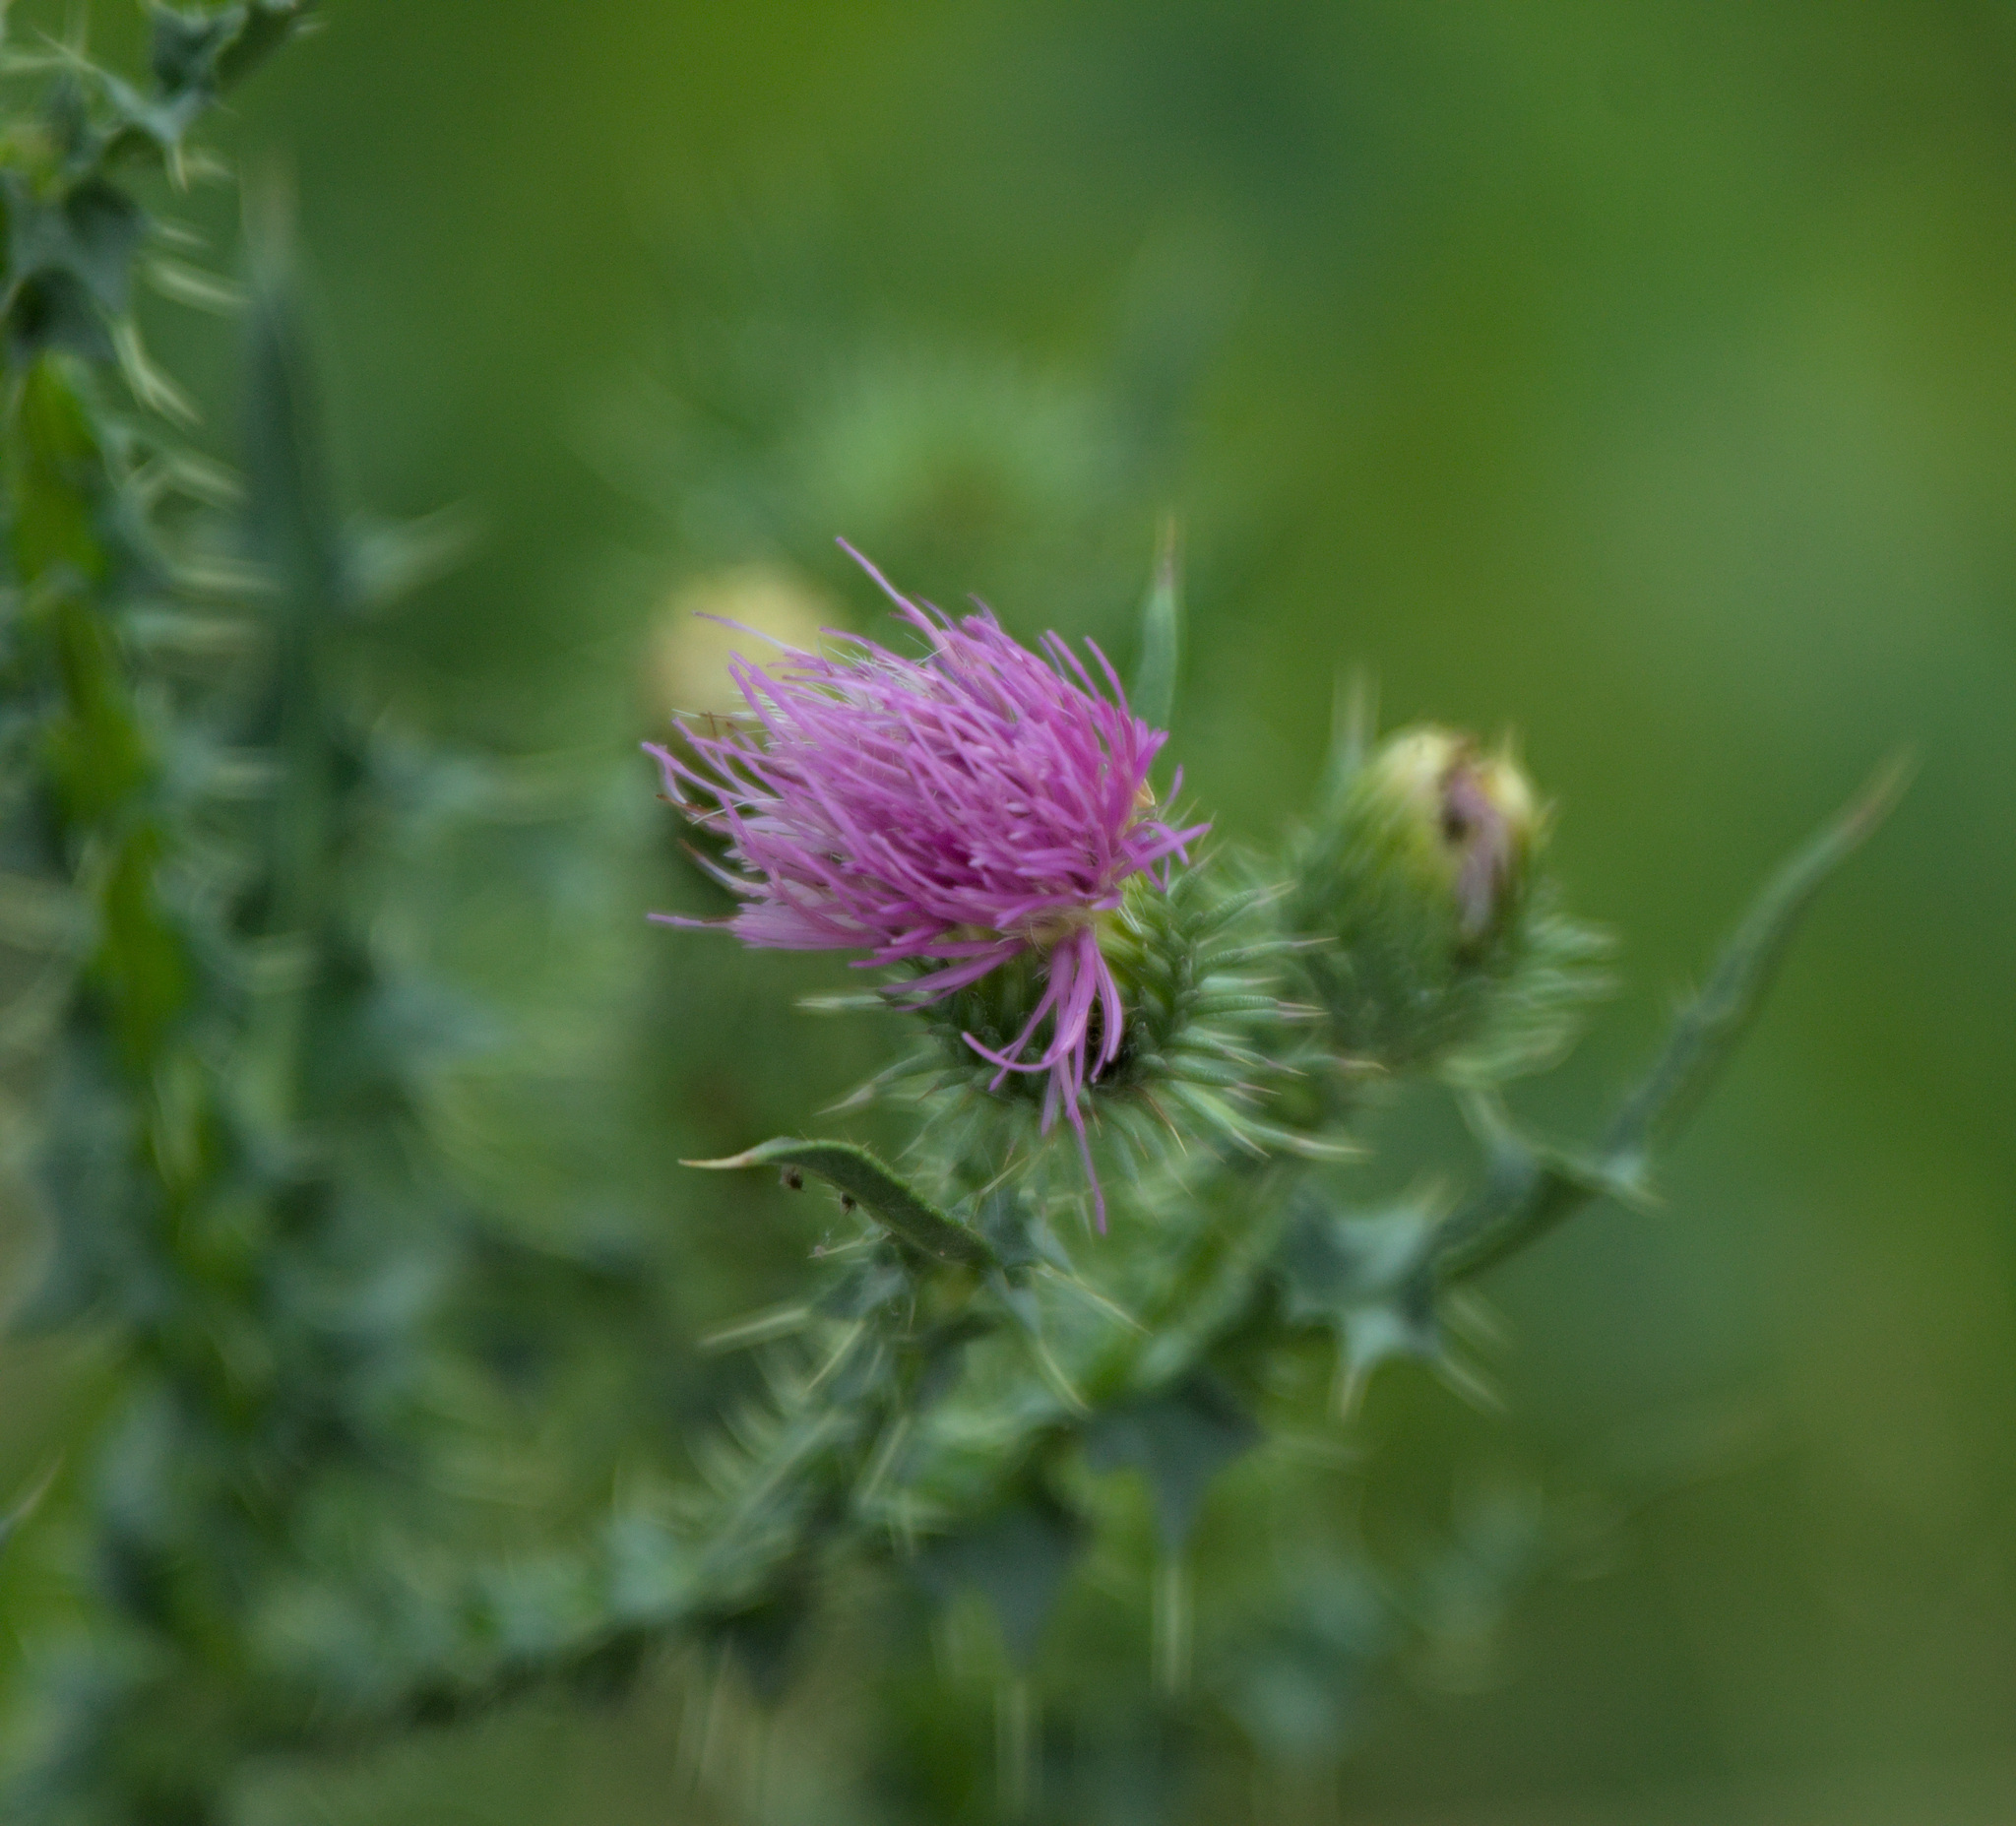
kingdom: Plantae
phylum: Tracheophyta
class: Magnoliopsida
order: Asterales
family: Asteraceae
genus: Carduus
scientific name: Carduus acanthoides
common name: Plumeless thistle
